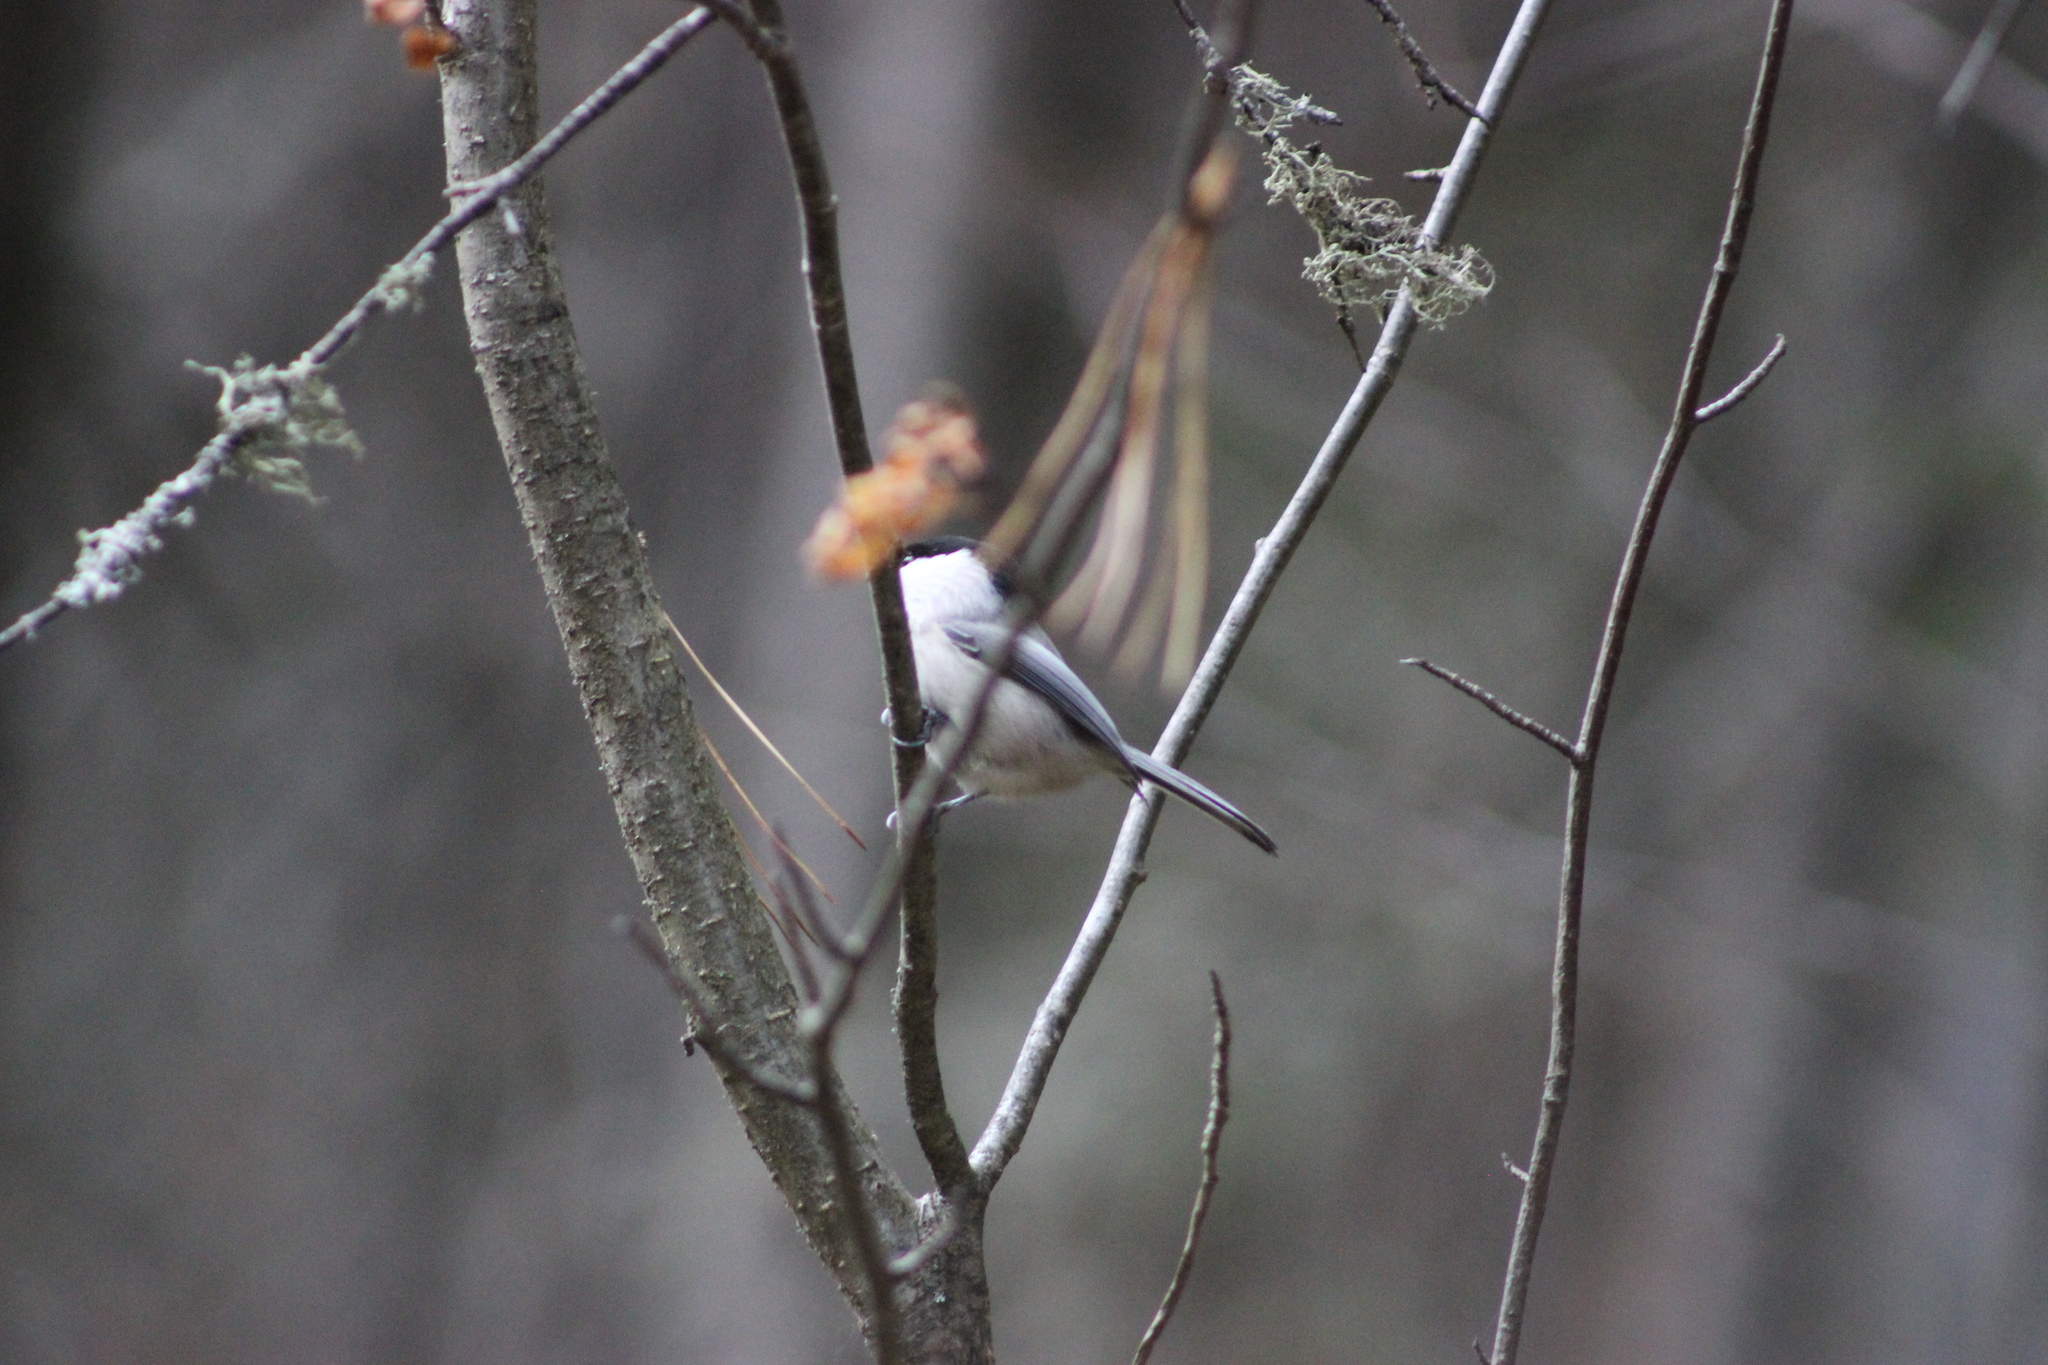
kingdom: Animalia
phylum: Chordata
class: Aves
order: Passeriformes
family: Paridae
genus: Poecile
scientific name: Poecile montanus
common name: Willow tit
